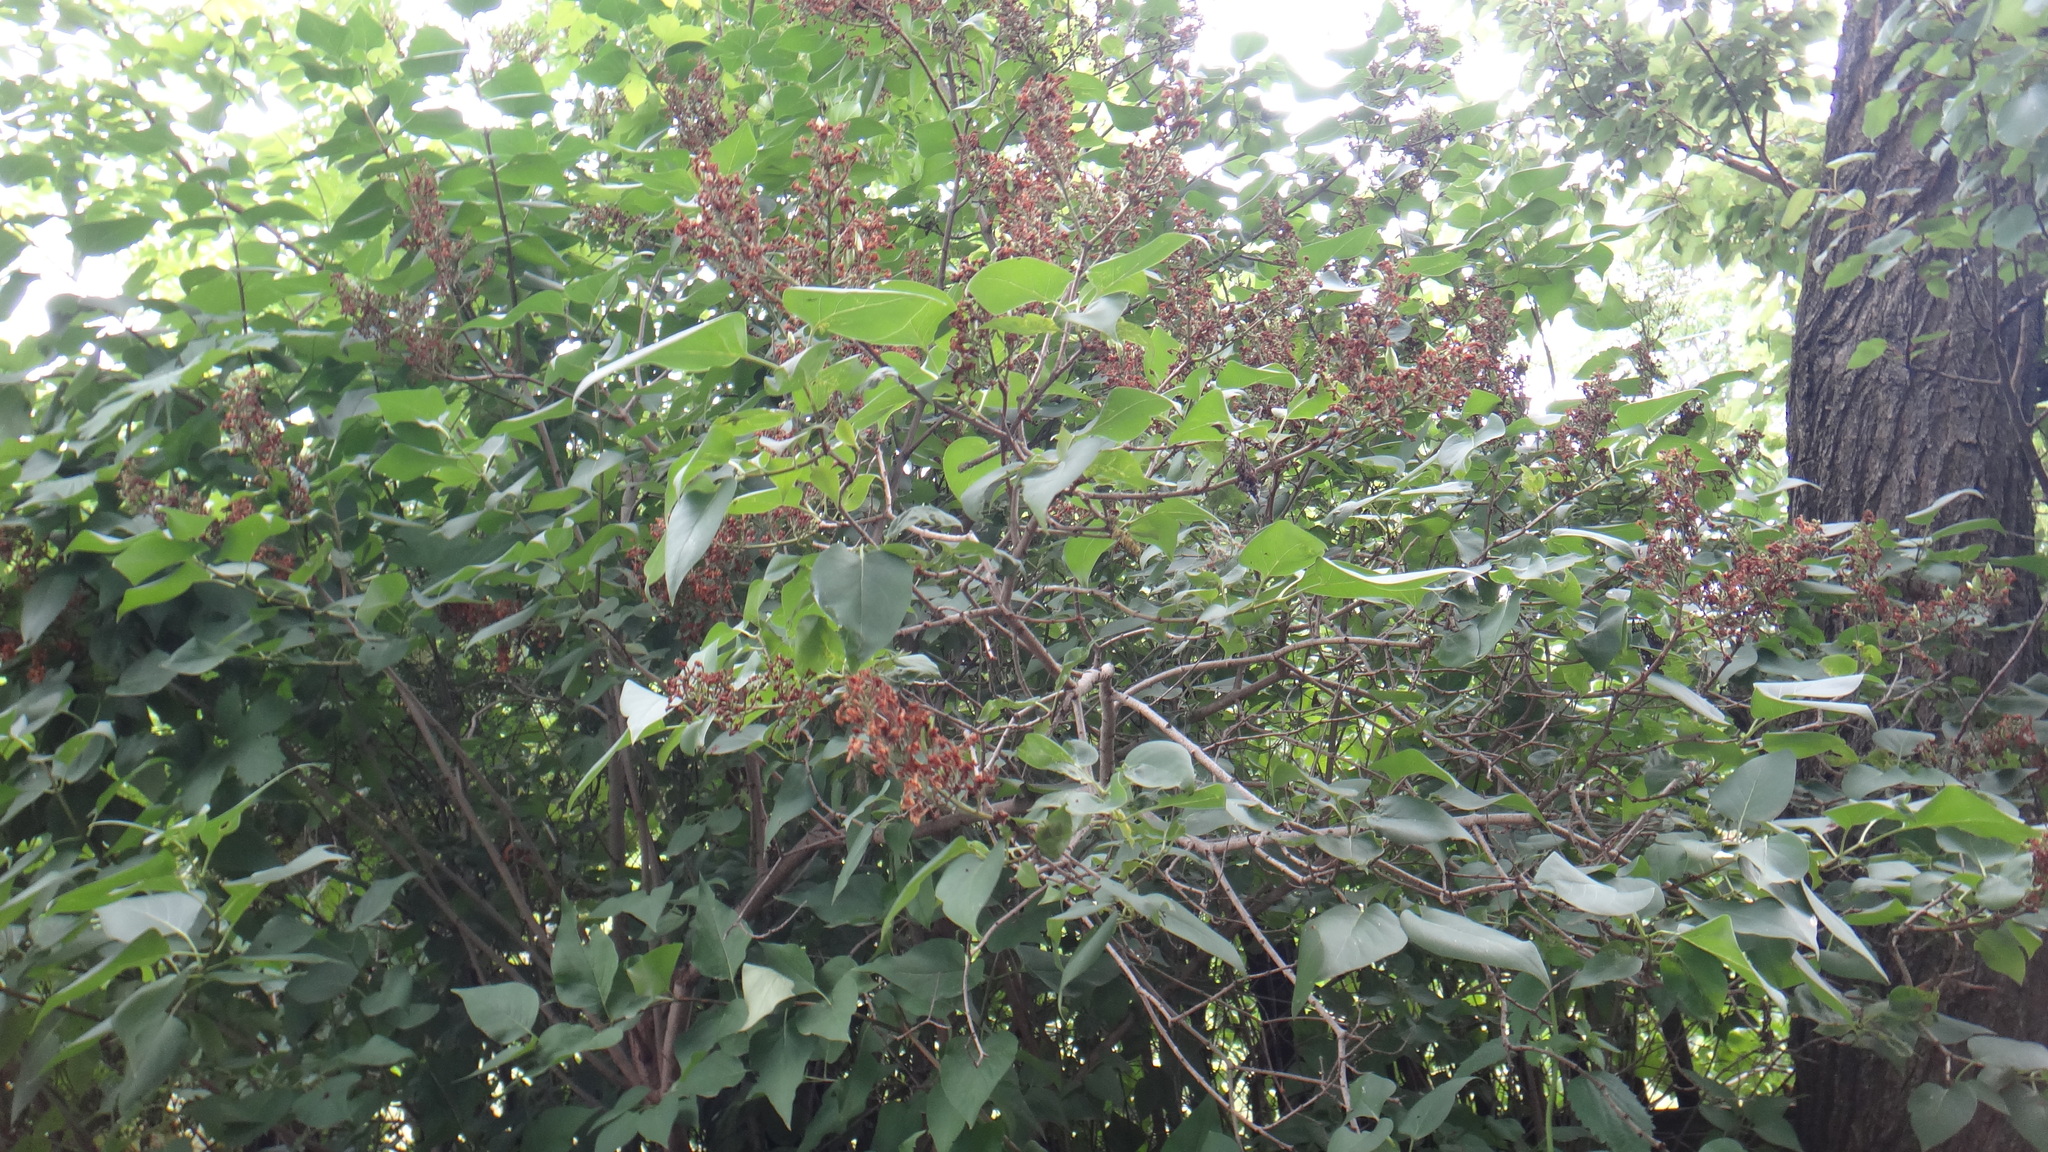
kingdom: Plantae
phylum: Tracheophyta
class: Magnoliopsida
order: Lamiales
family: Oleaceae
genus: Syringa
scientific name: Syringa vulgaris
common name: Common lilac
